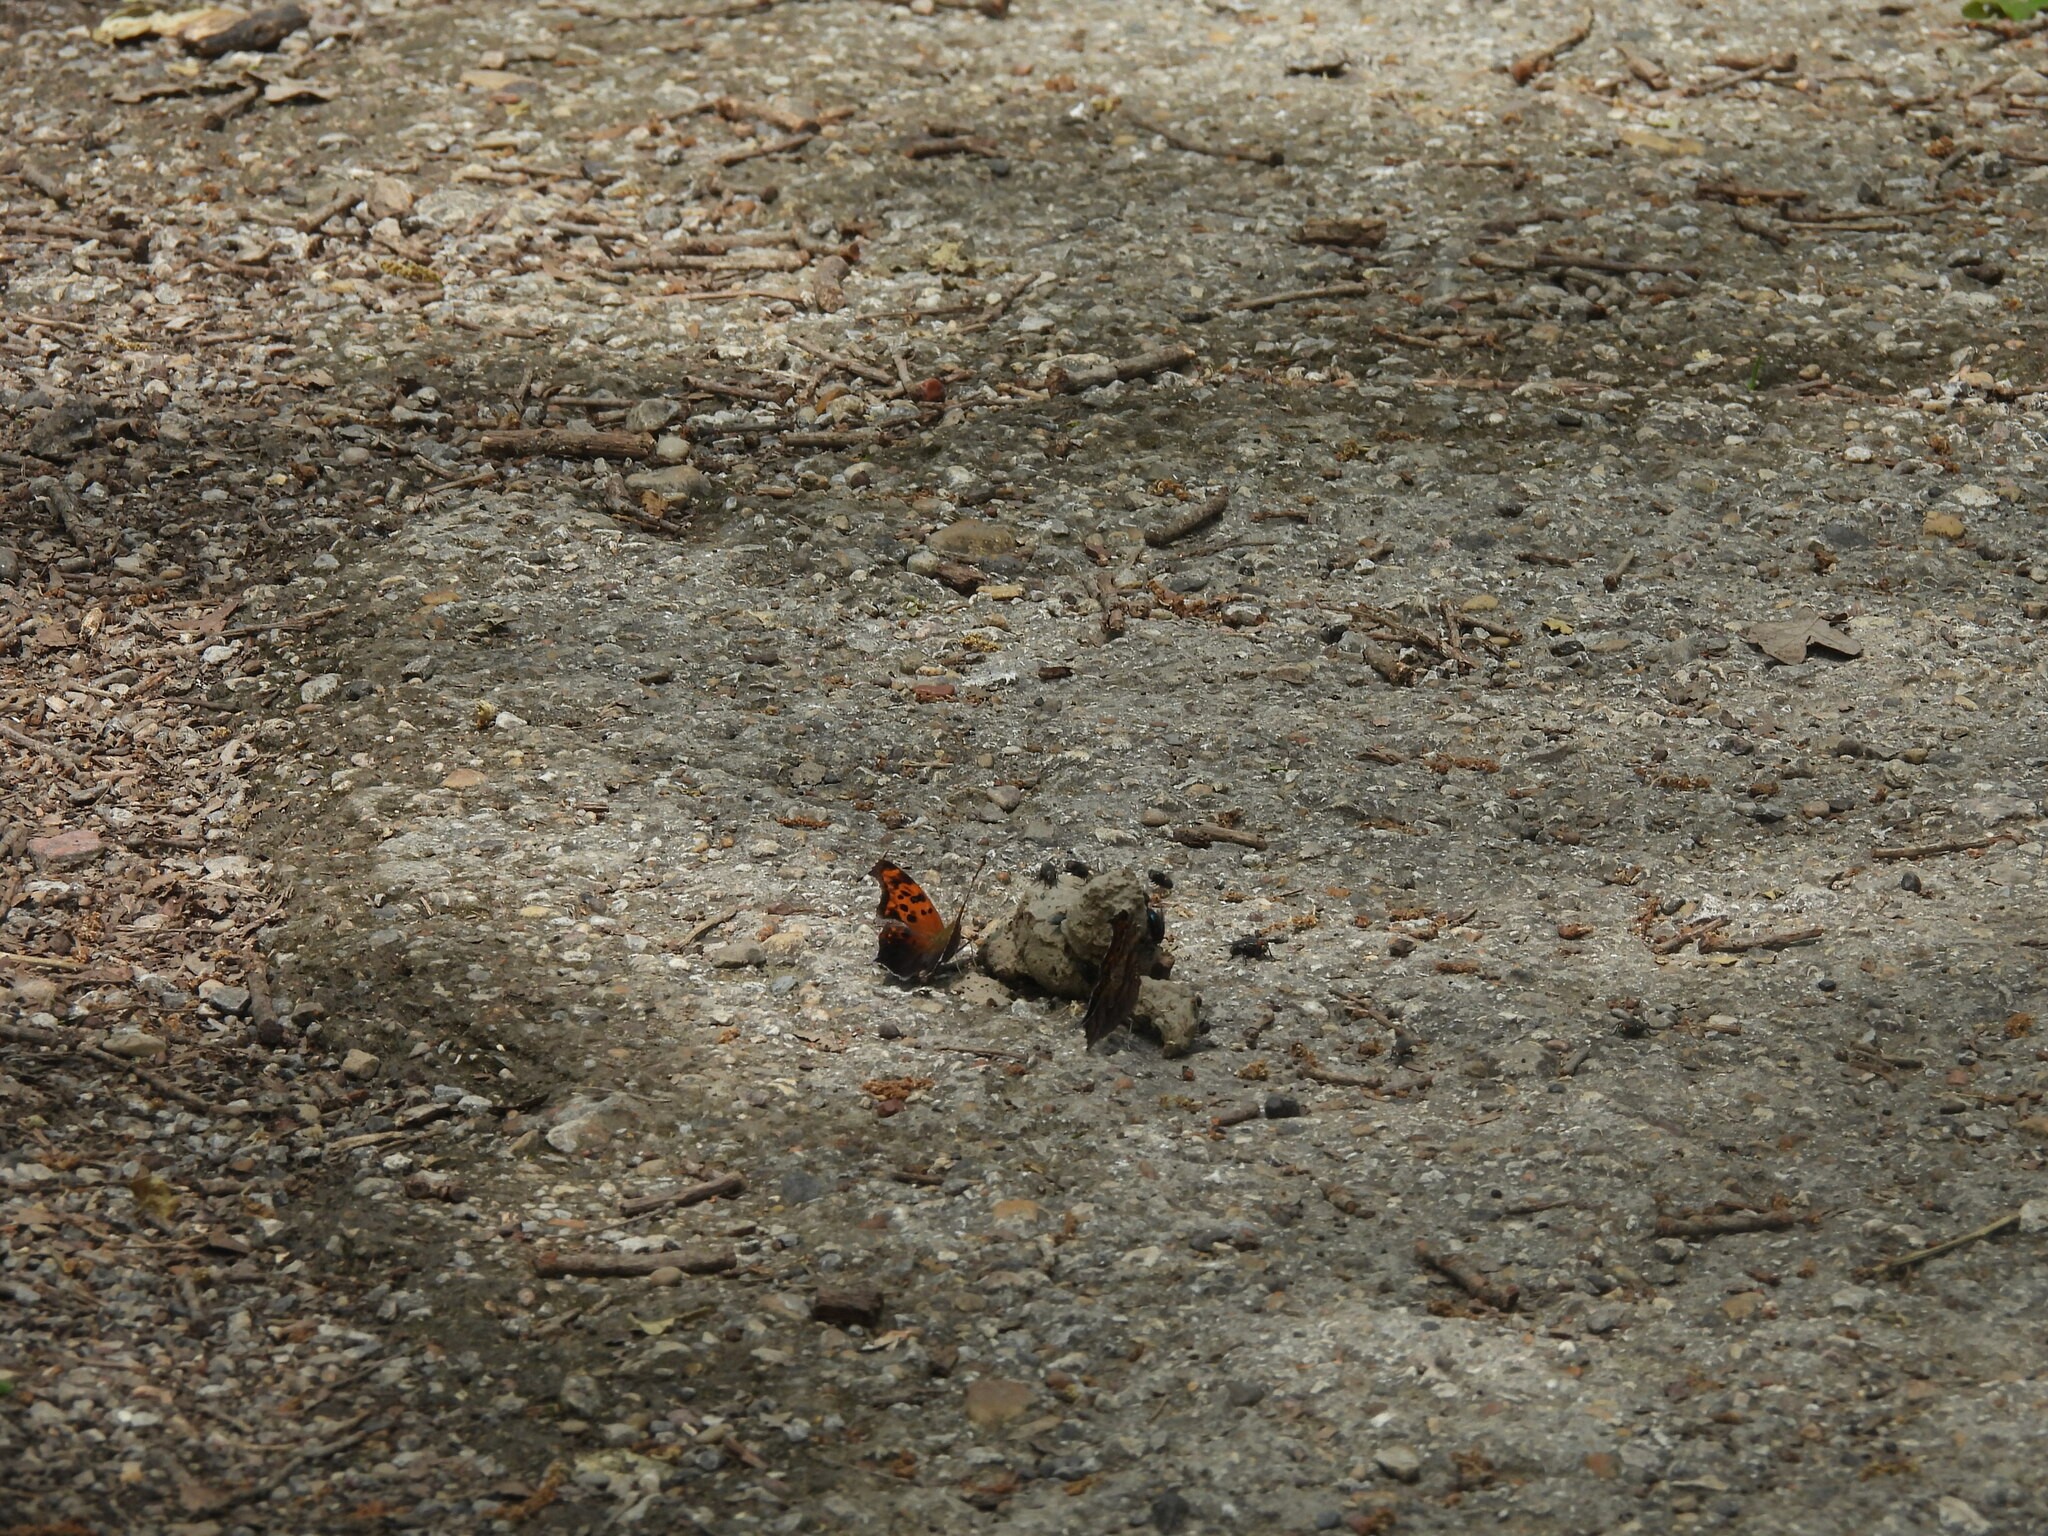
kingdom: Animalia
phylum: Arthropoda
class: Insecta
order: Lepidoptera
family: Nymphalidae
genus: Polygonia
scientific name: Polygonia interrogationis
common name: Question mark
